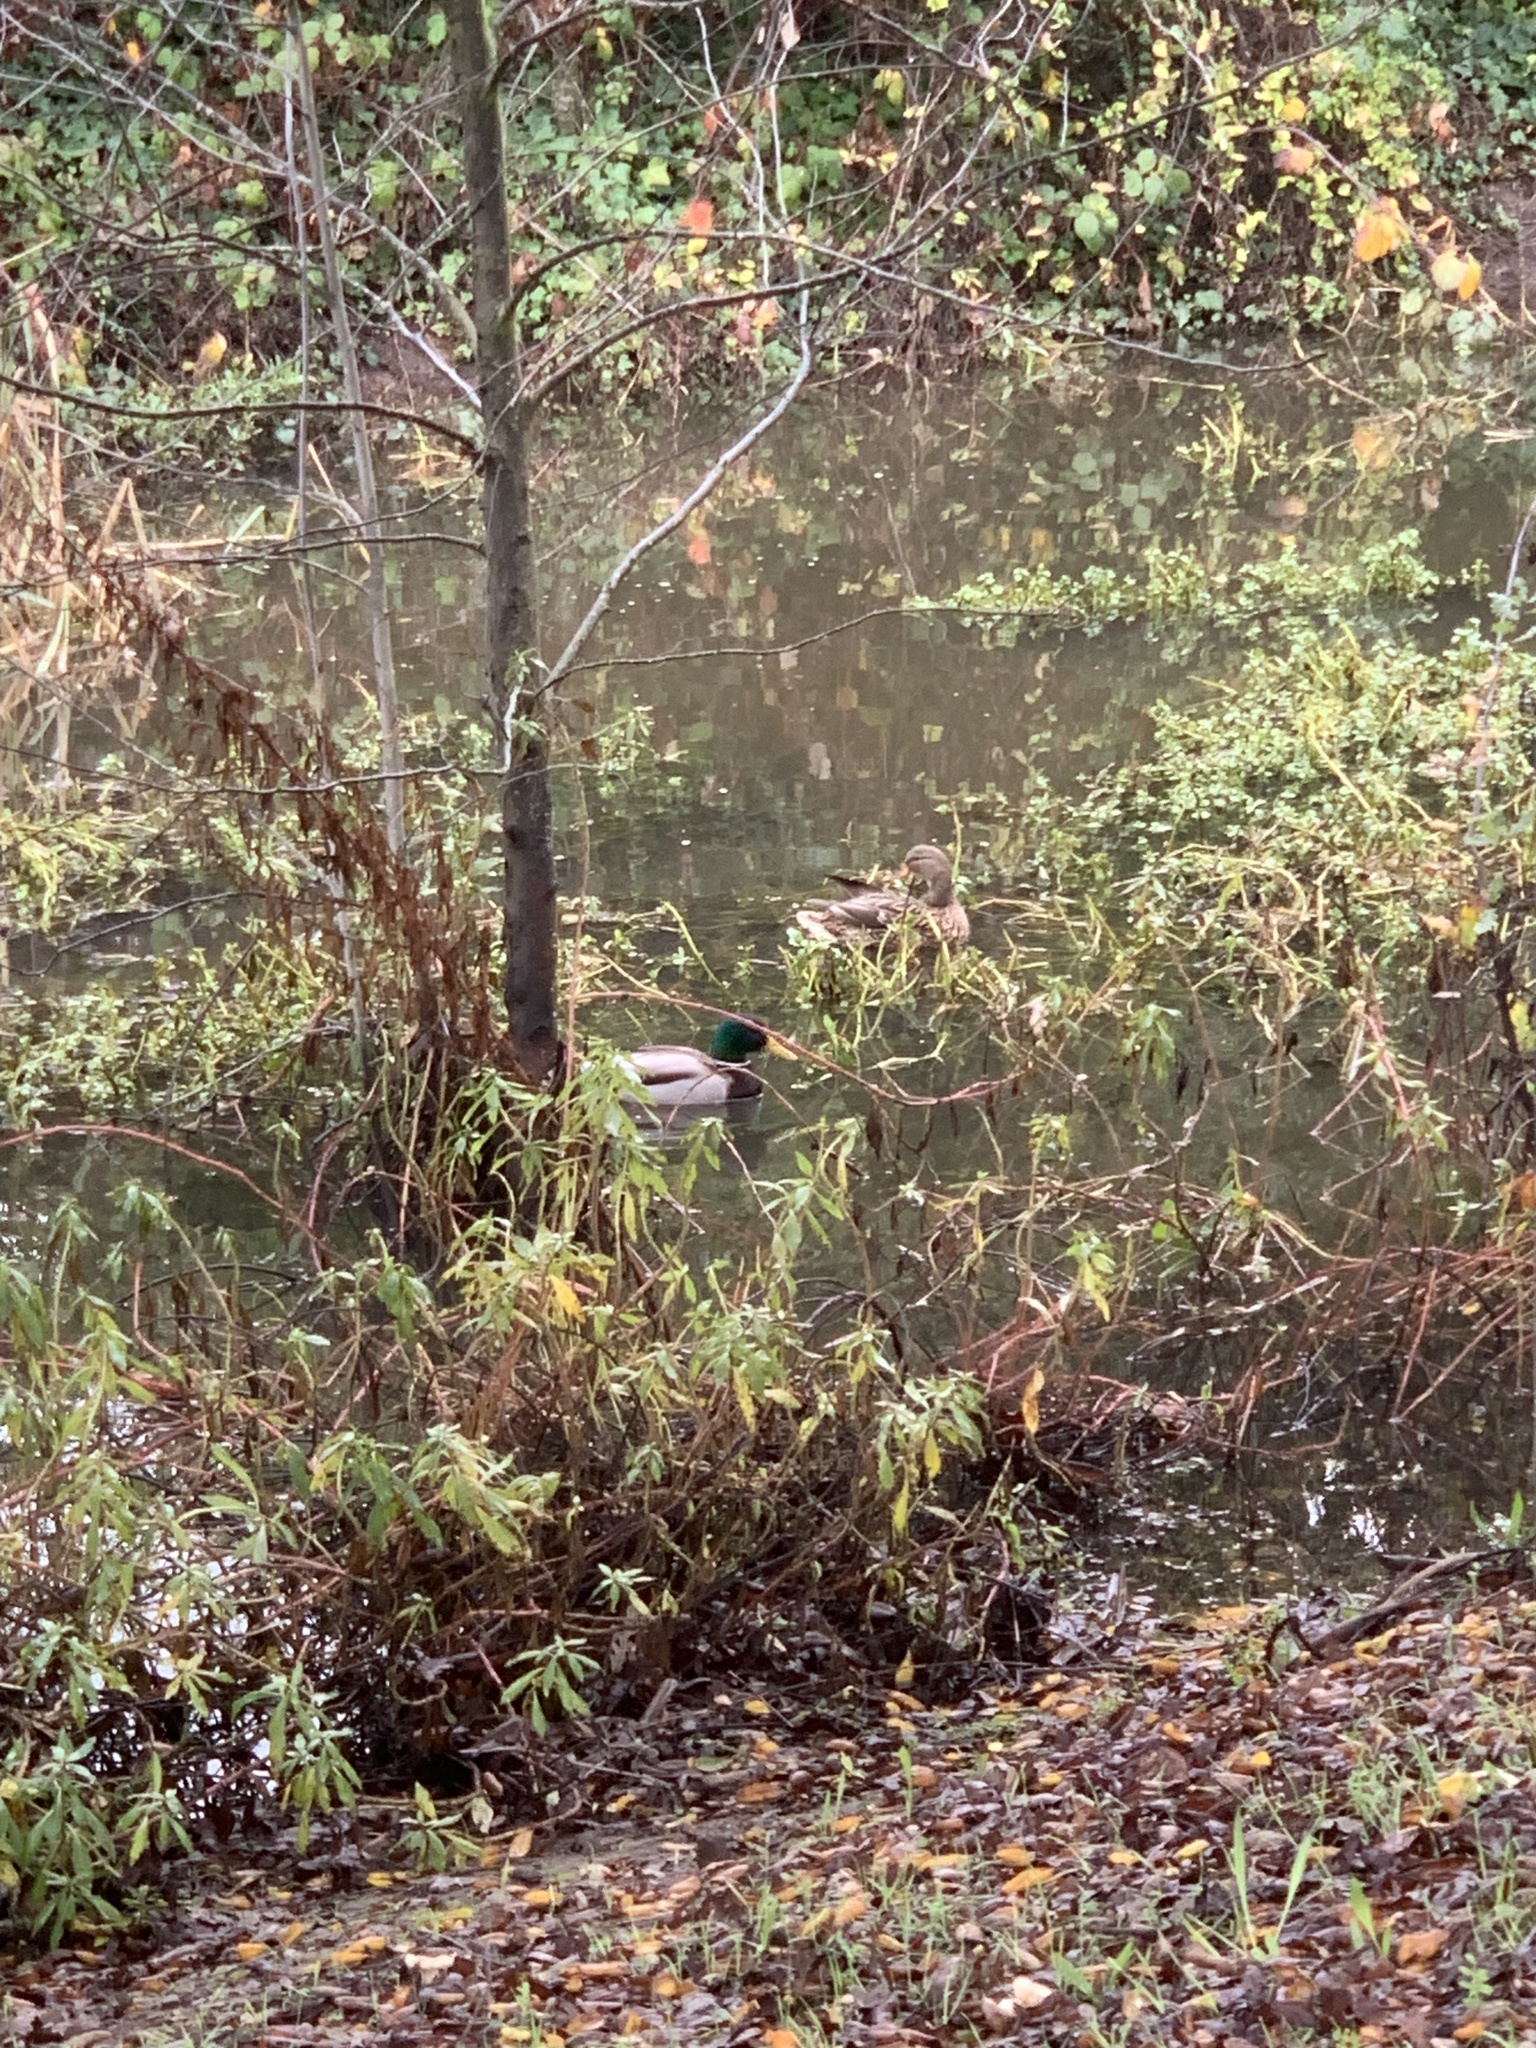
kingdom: Animalia
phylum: Chordata
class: Aves
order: Anseriformes
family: Anatidae
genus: Anas
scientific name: Anas platyrhynchos
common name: Mallard
